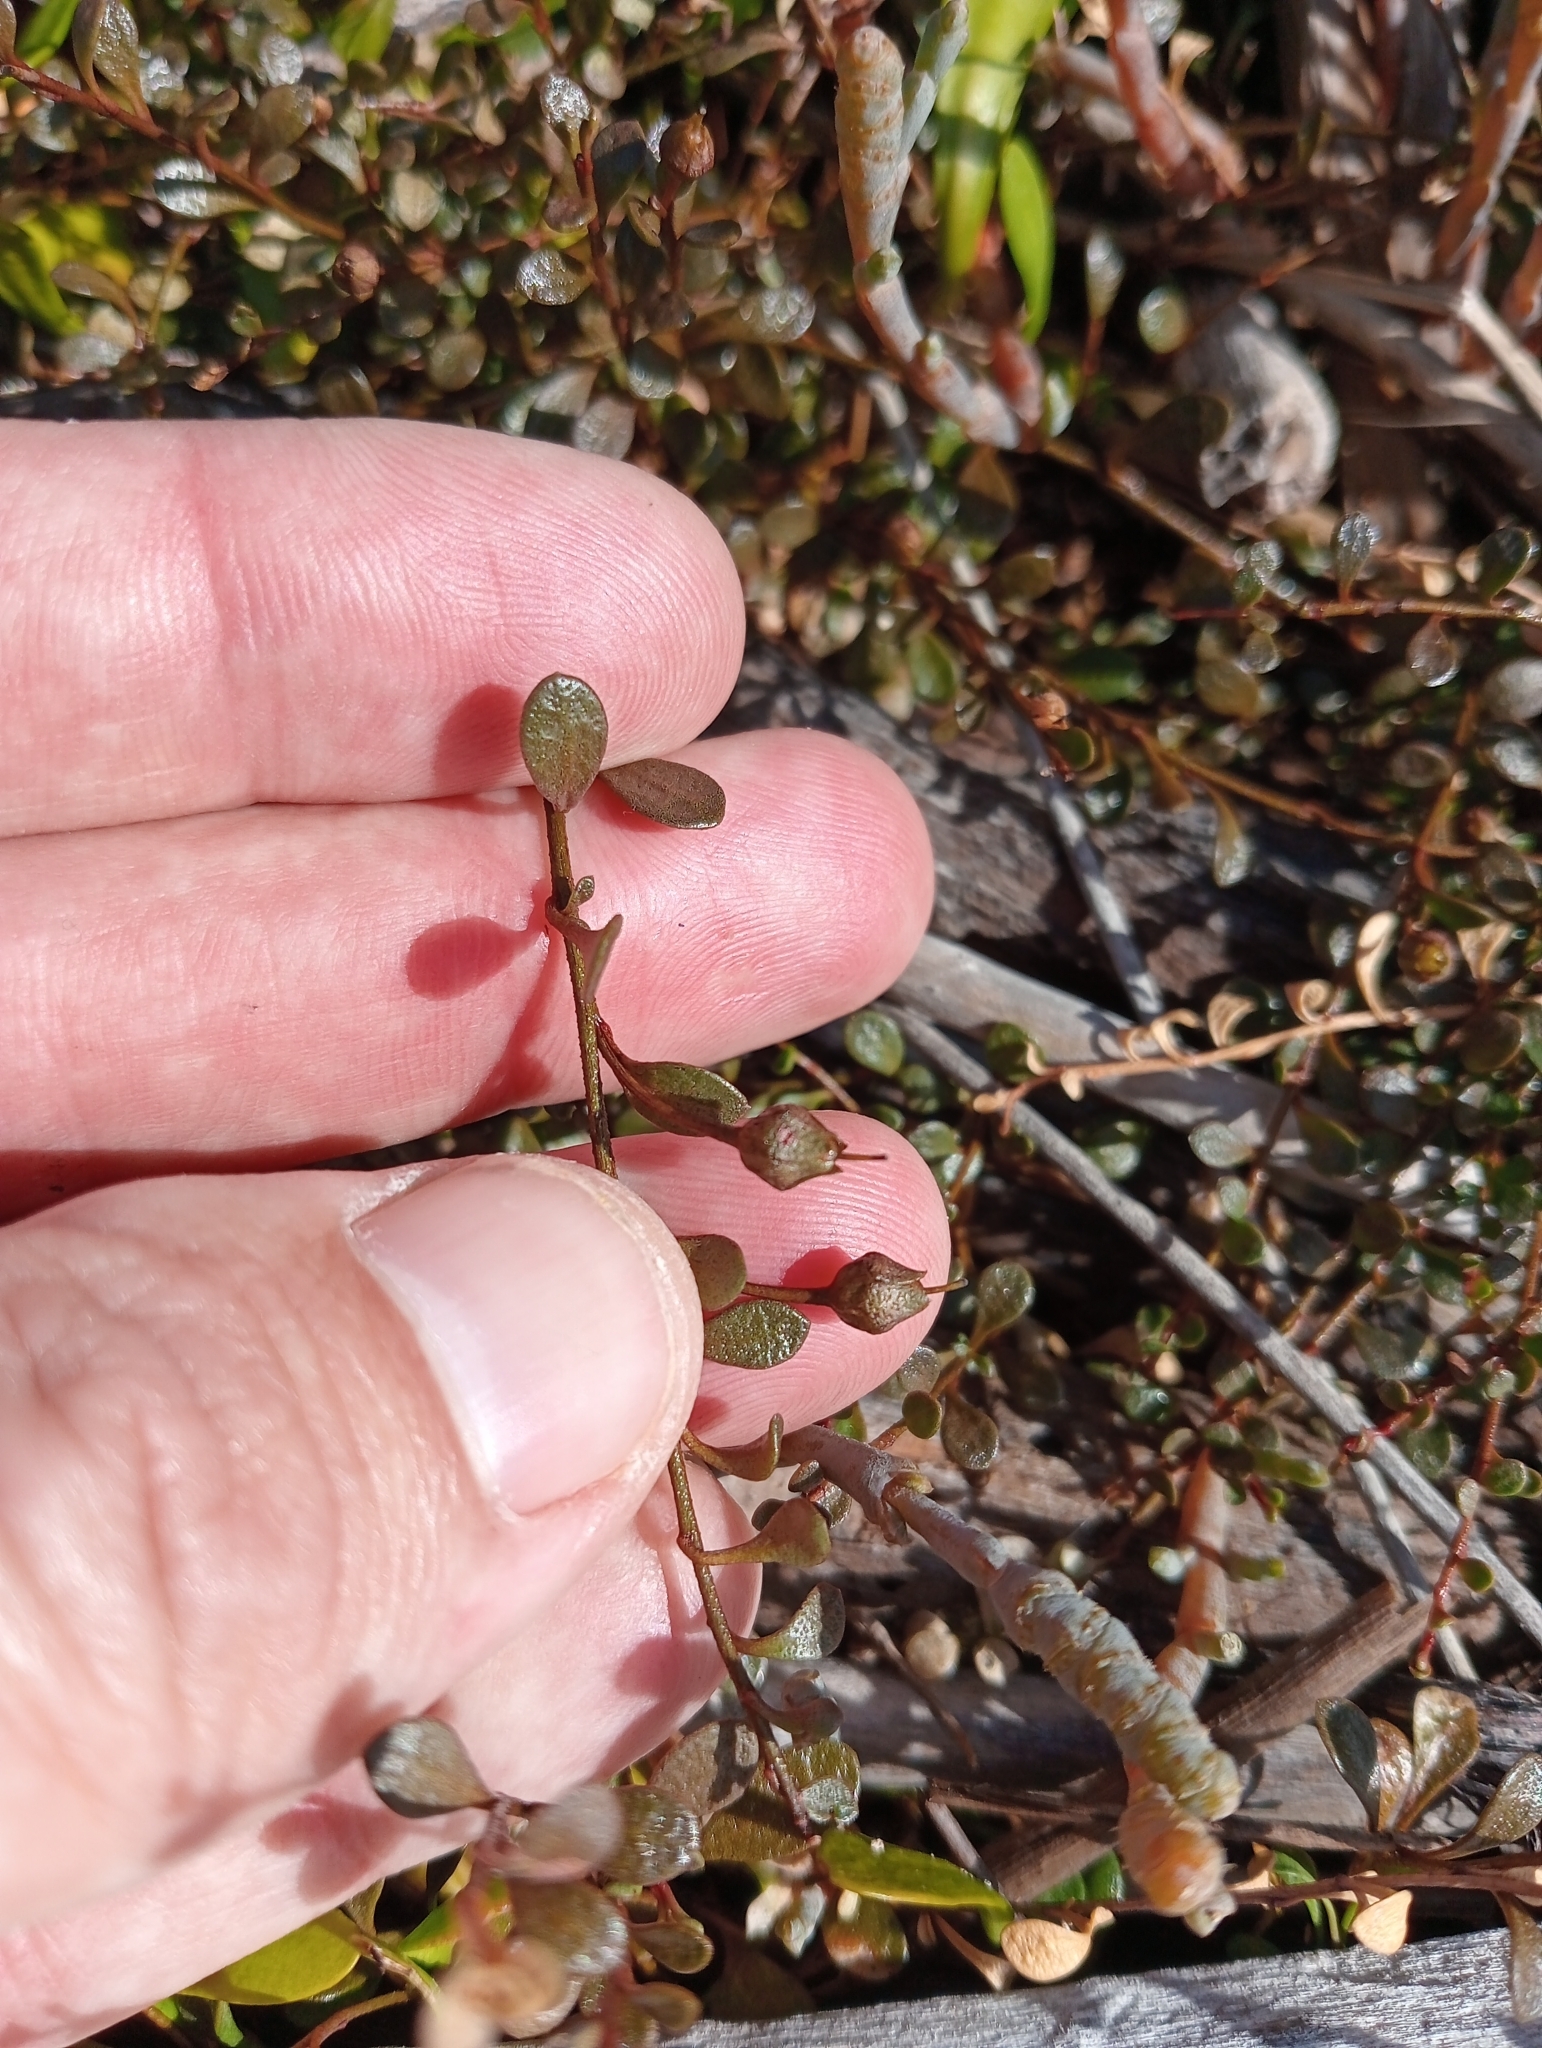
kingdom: Plantae
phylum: Tracheophyta
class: Magnoliopsida
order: Ericales
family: Primulaceae
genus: Samolus
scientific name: Samolus repens
